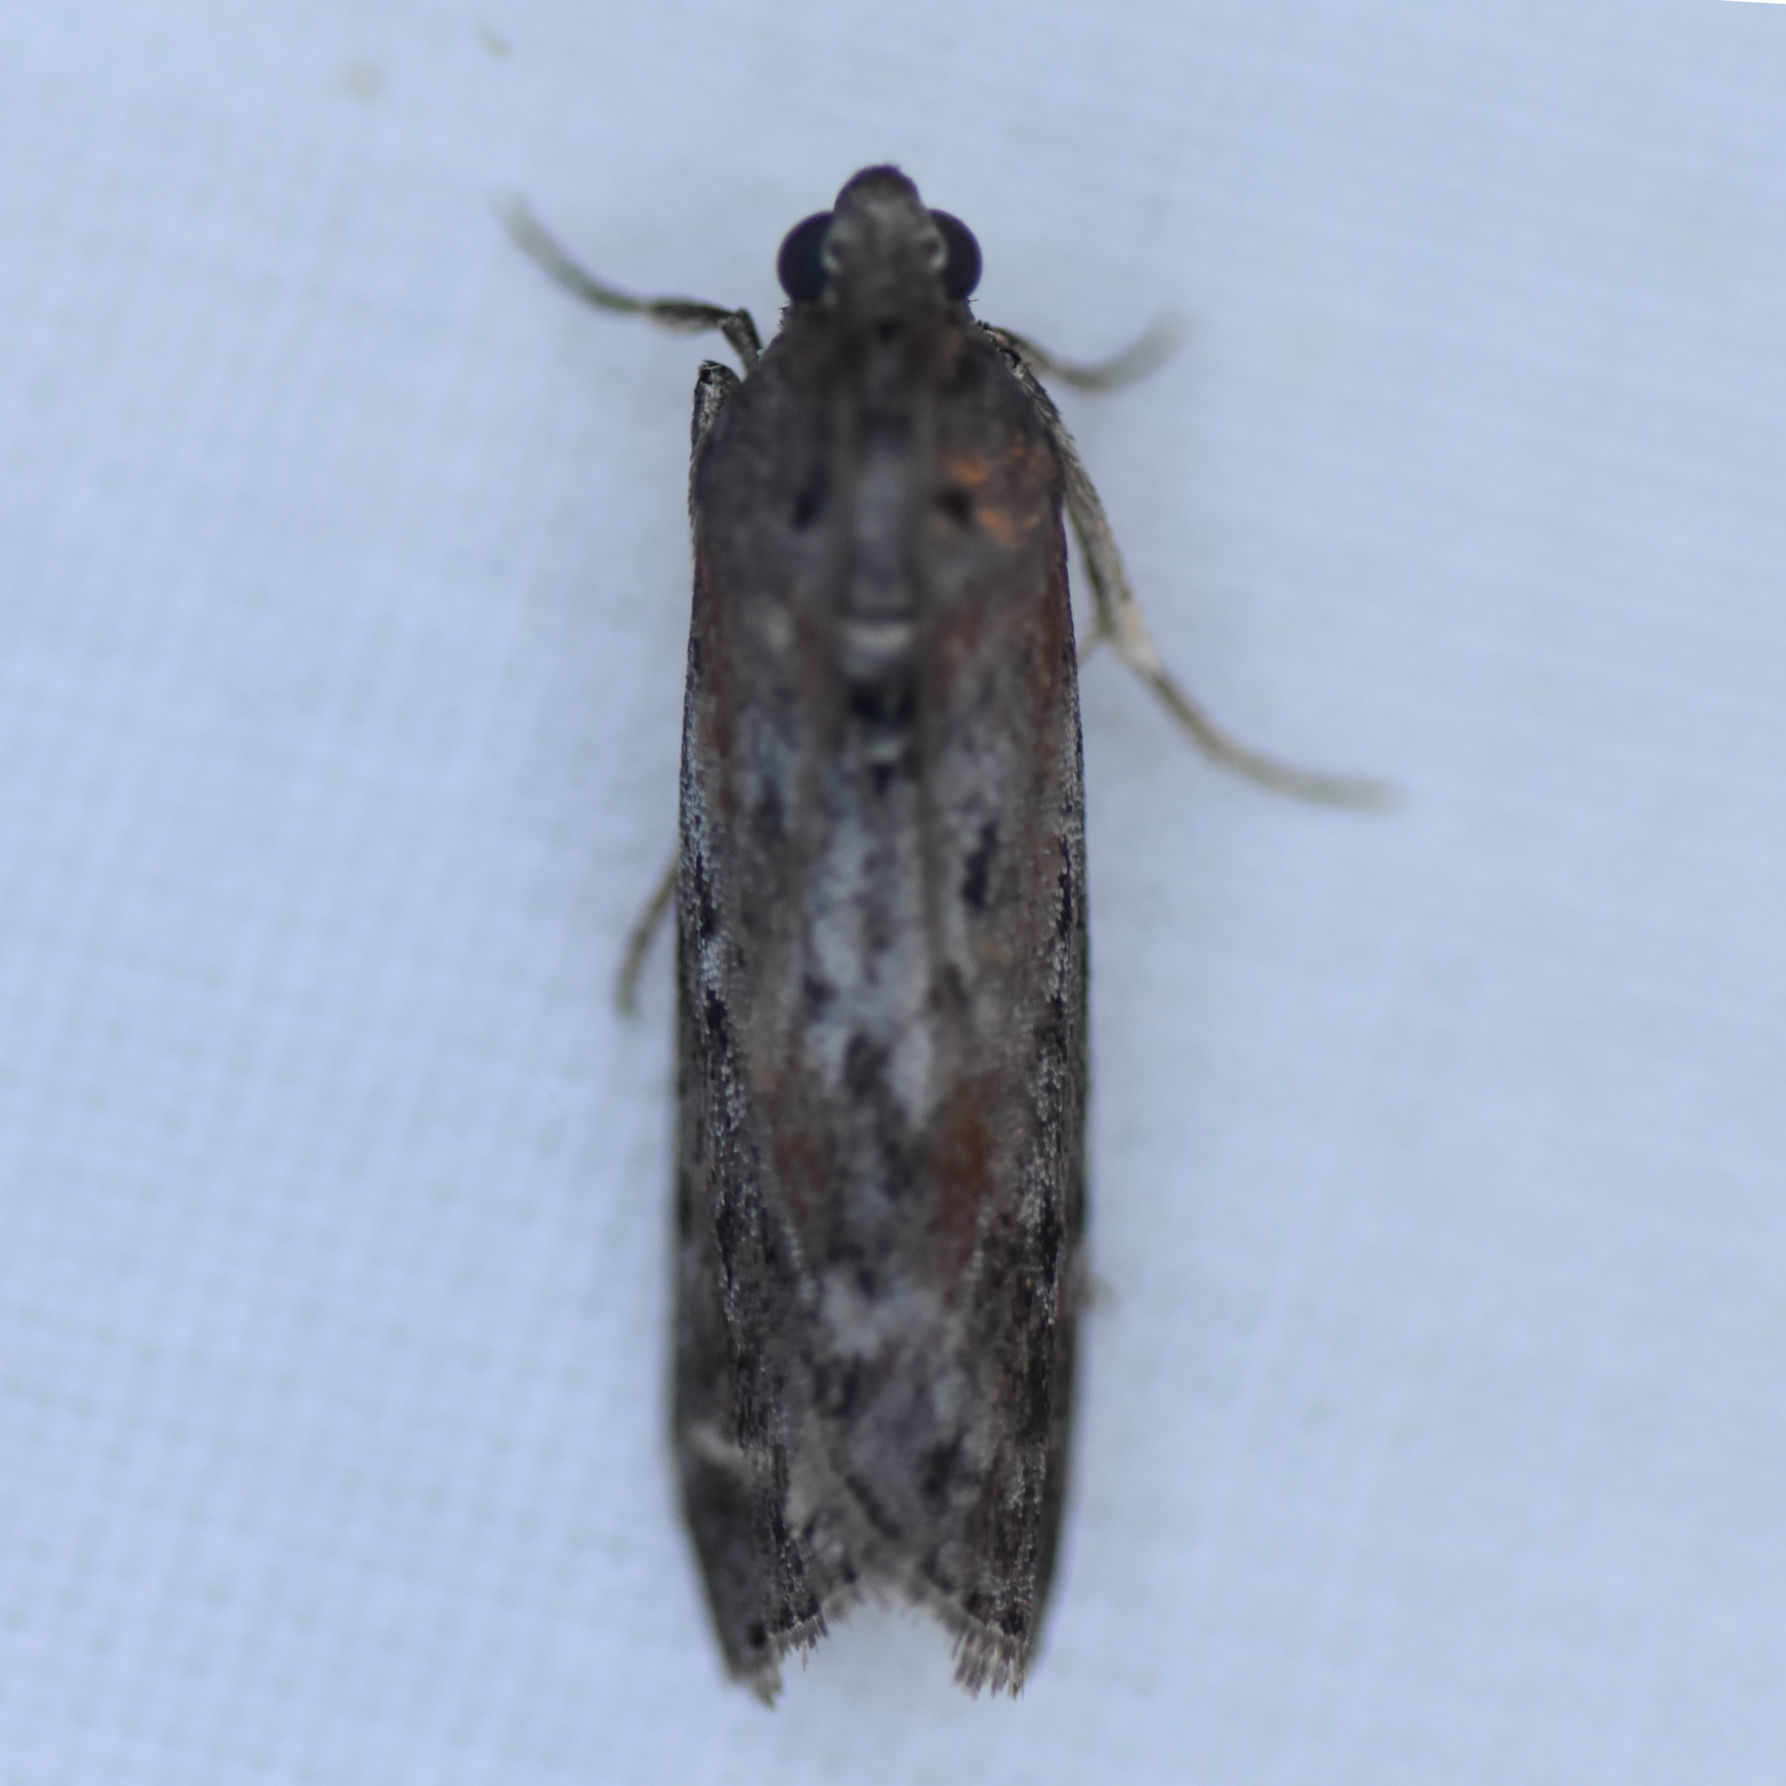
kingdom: Animalia
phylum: Arthropoda
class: Insecta
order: Lepidoptera
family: Pyralidae
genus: Sciota
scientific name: Sciota virgatella
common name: Black-spotted leafroller moth
